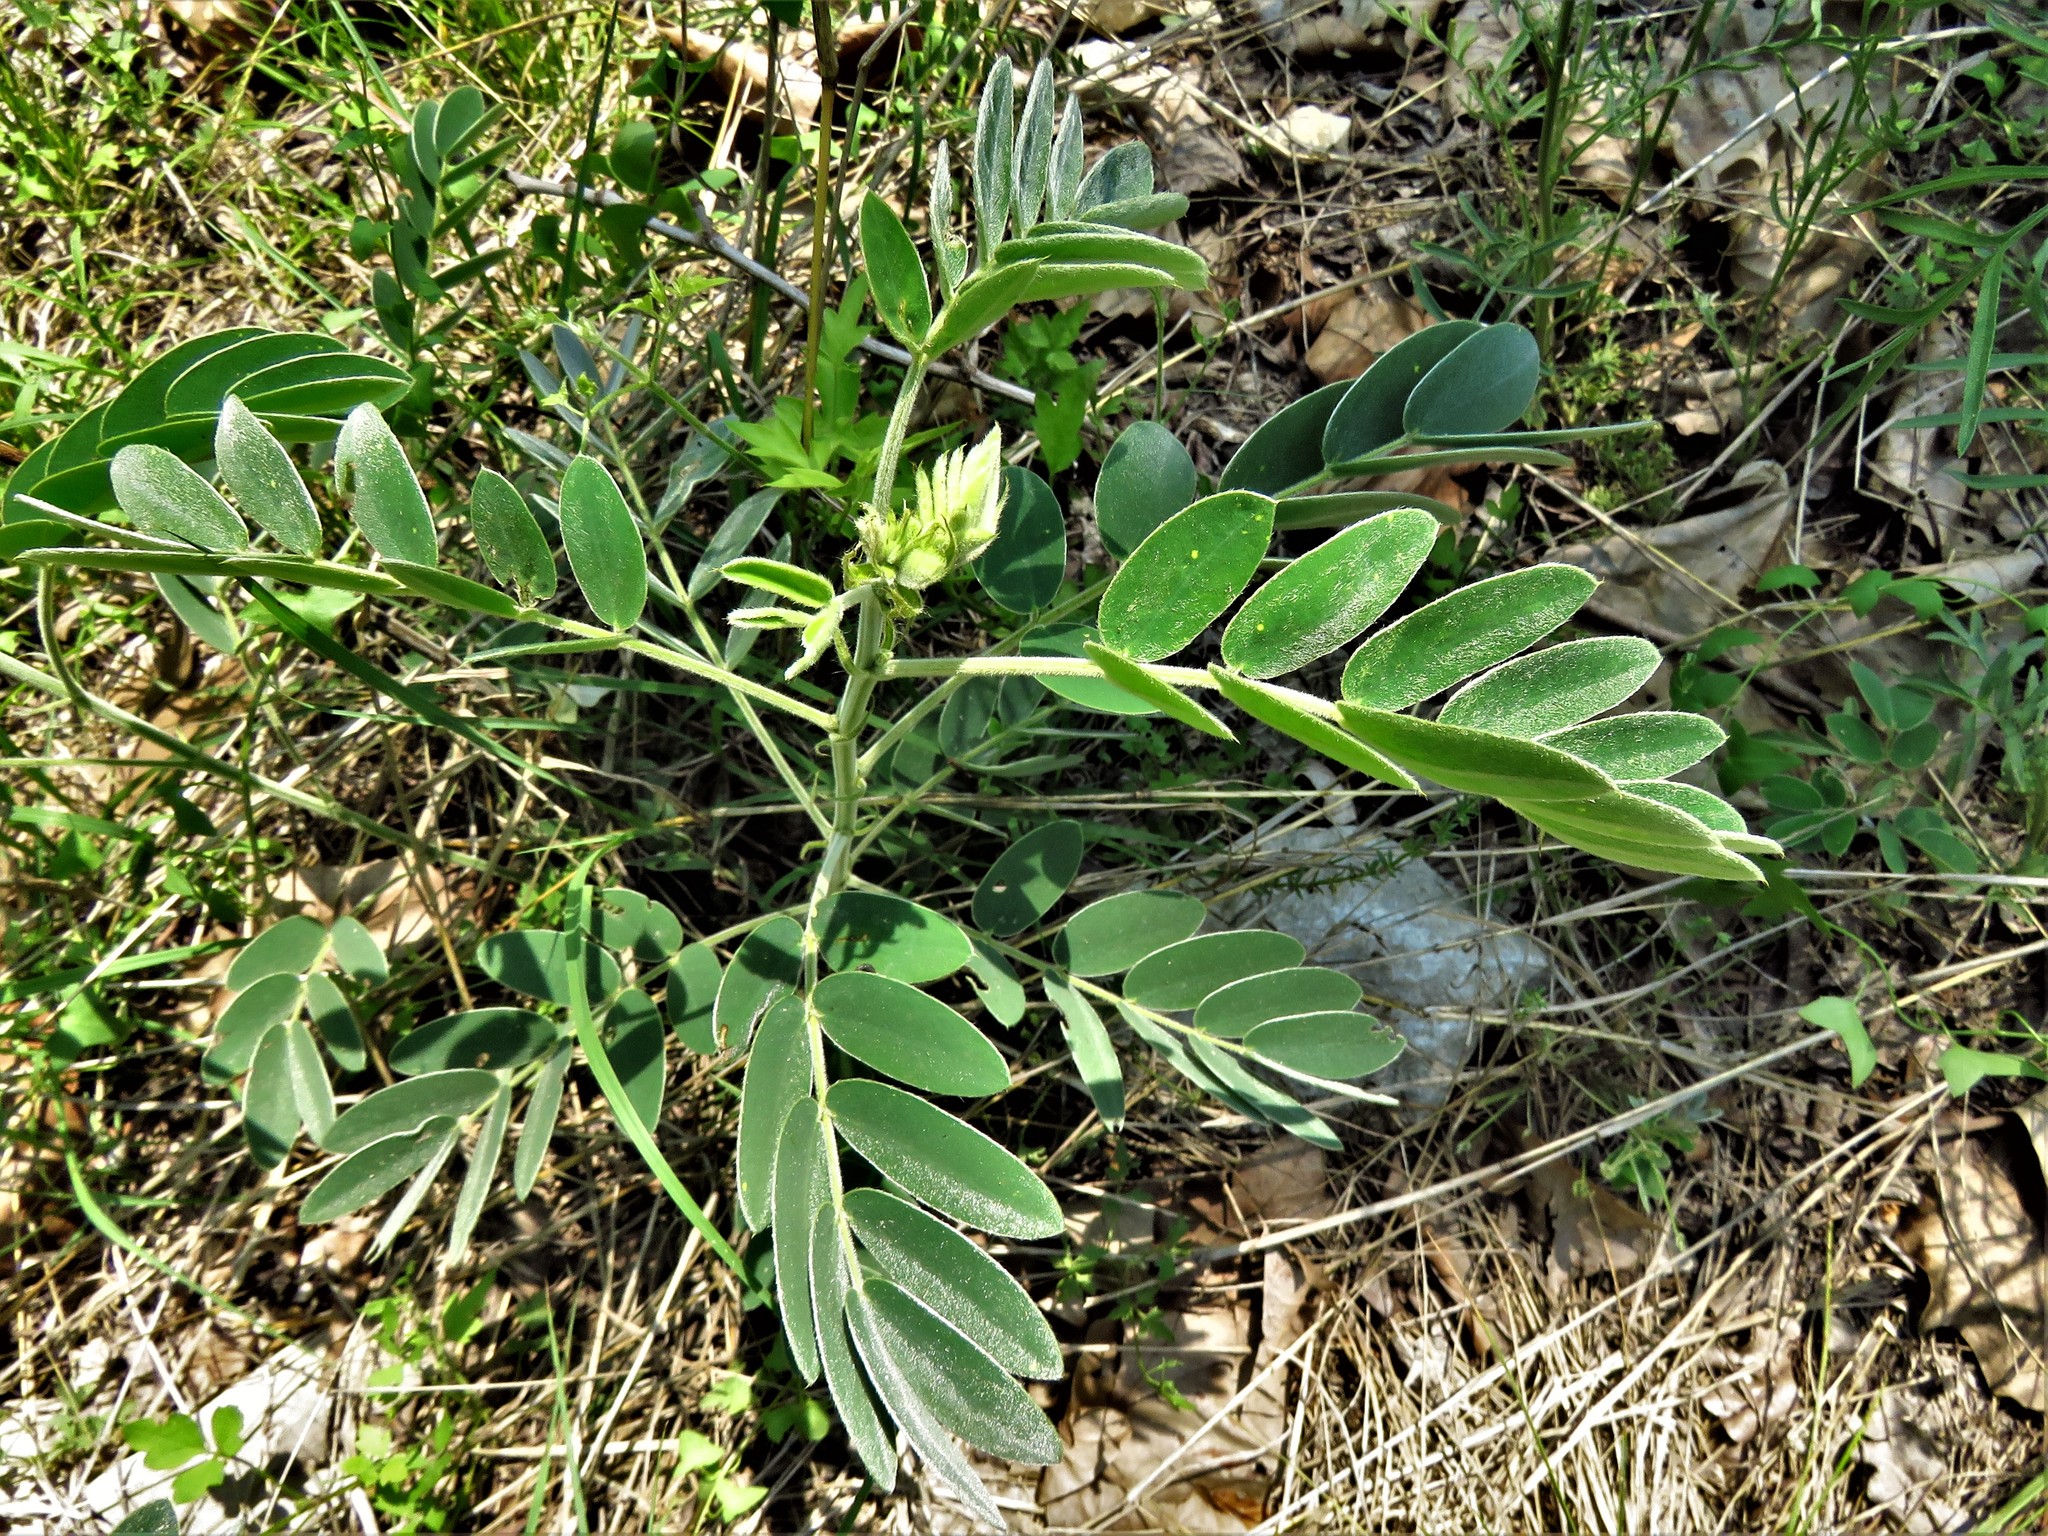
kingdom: Plantae
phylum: Tracheophyta
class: Magnoliopsida
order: Fabales
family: Fabaceae
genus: Senna
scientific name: Senna lindheimeriana
